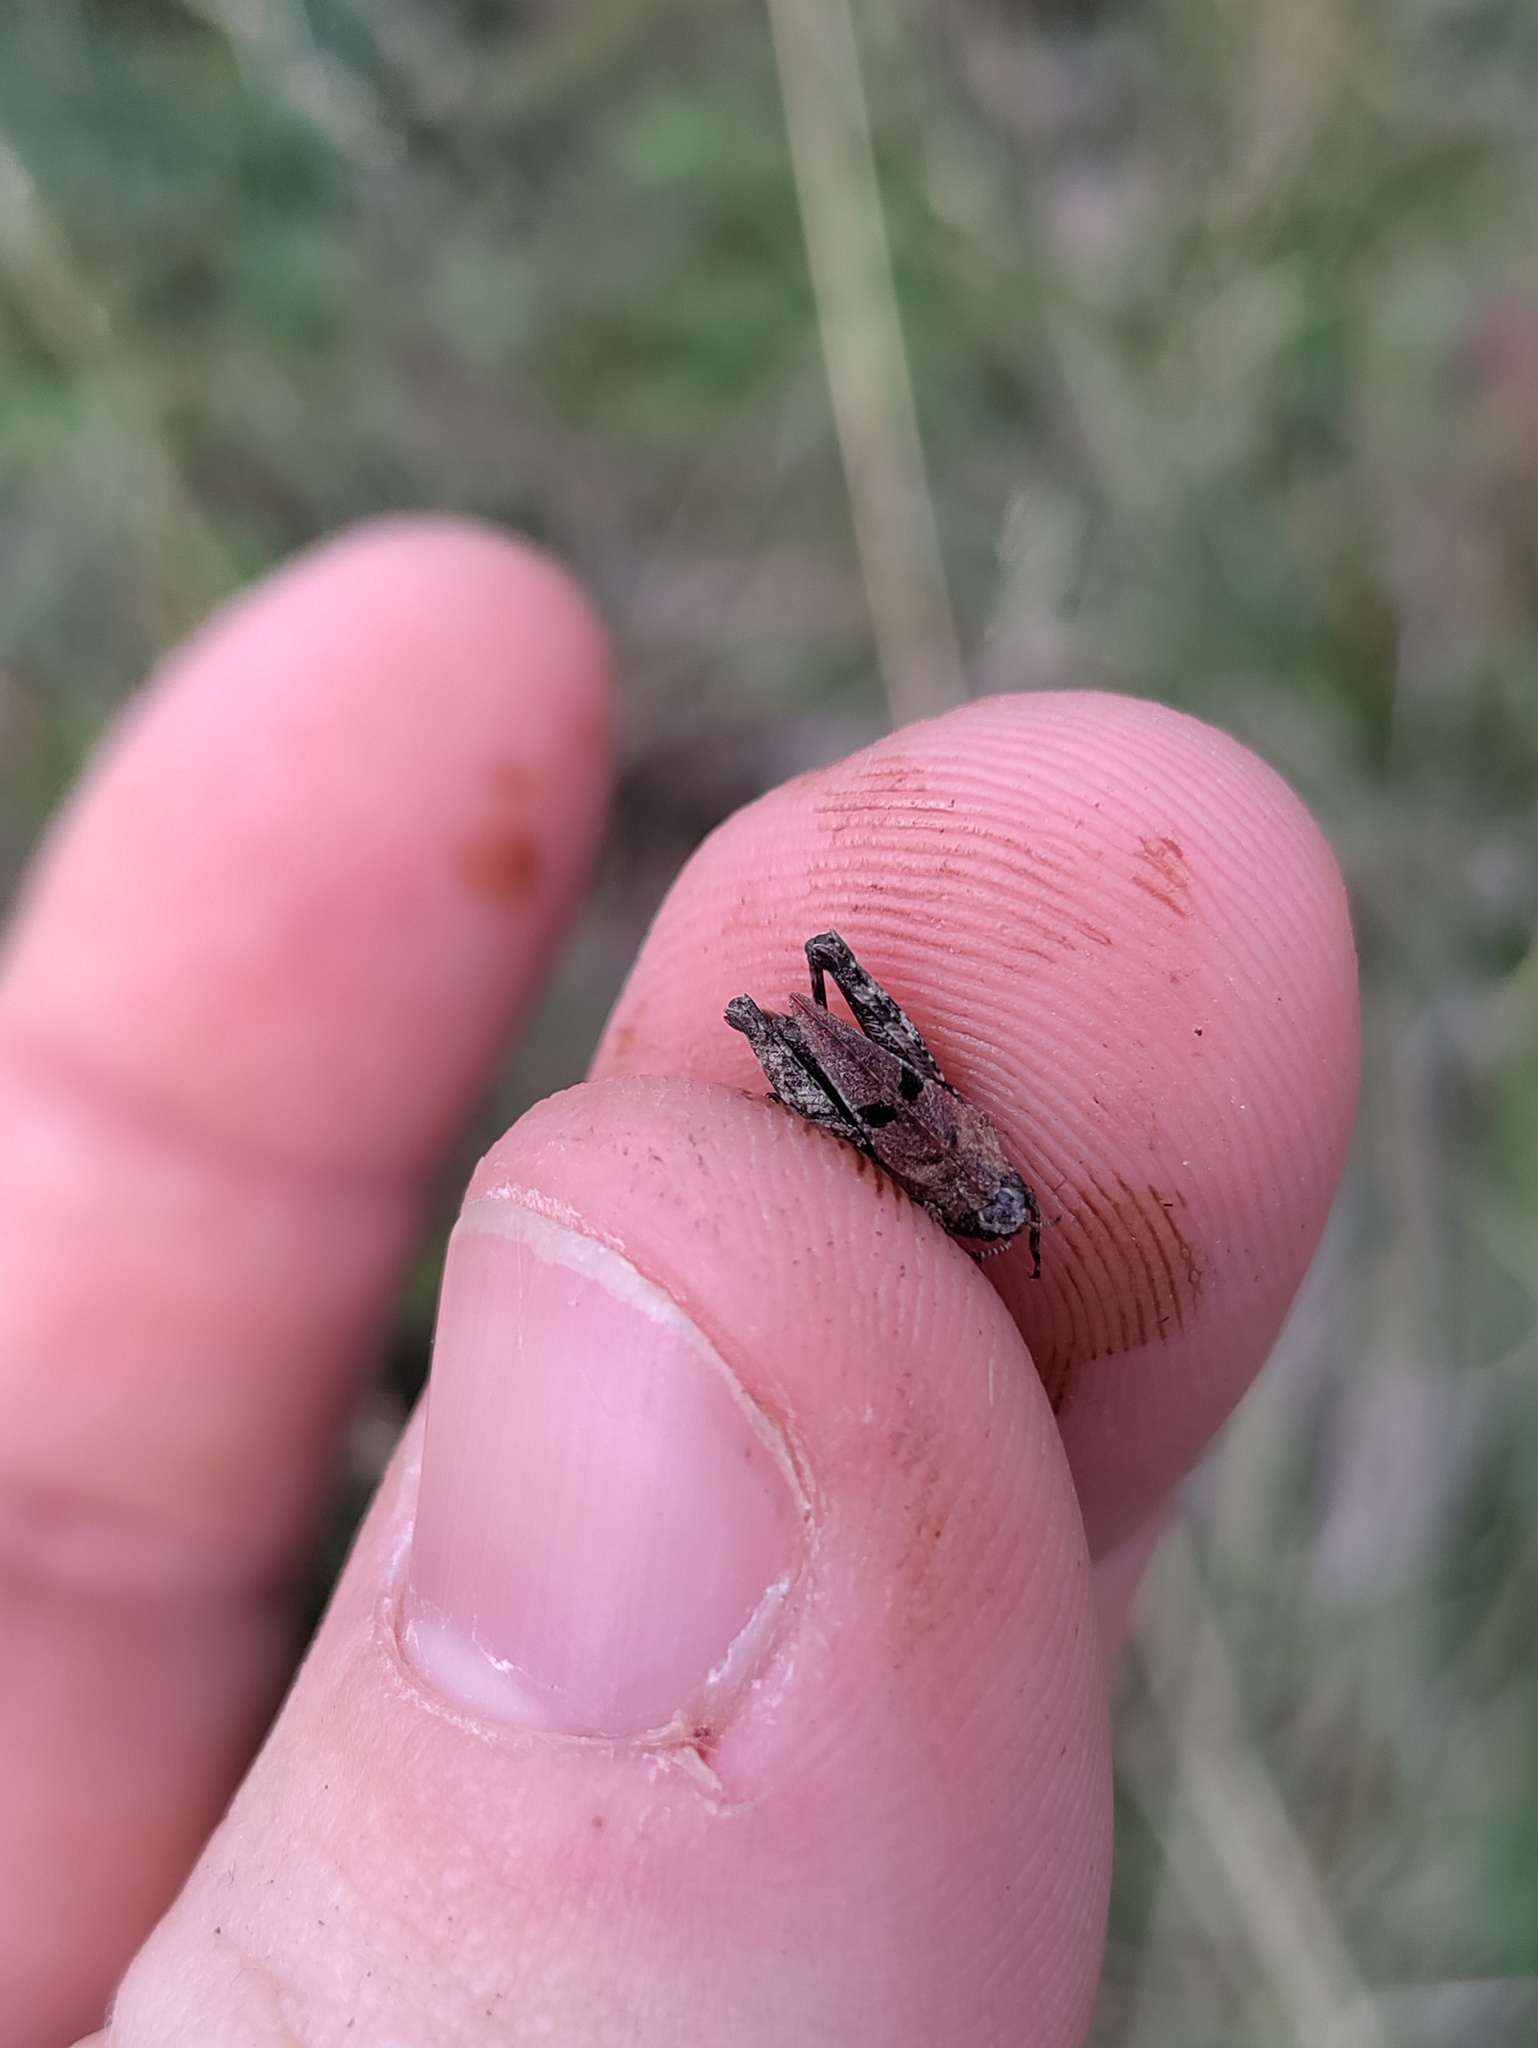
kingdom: Animalia
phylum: Arthropoda
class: Insecta
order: Orthoptera
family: Tetrigidae
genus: Tetrix
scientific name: Tetrix bipunctata
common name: Two-spotted groundhopper
